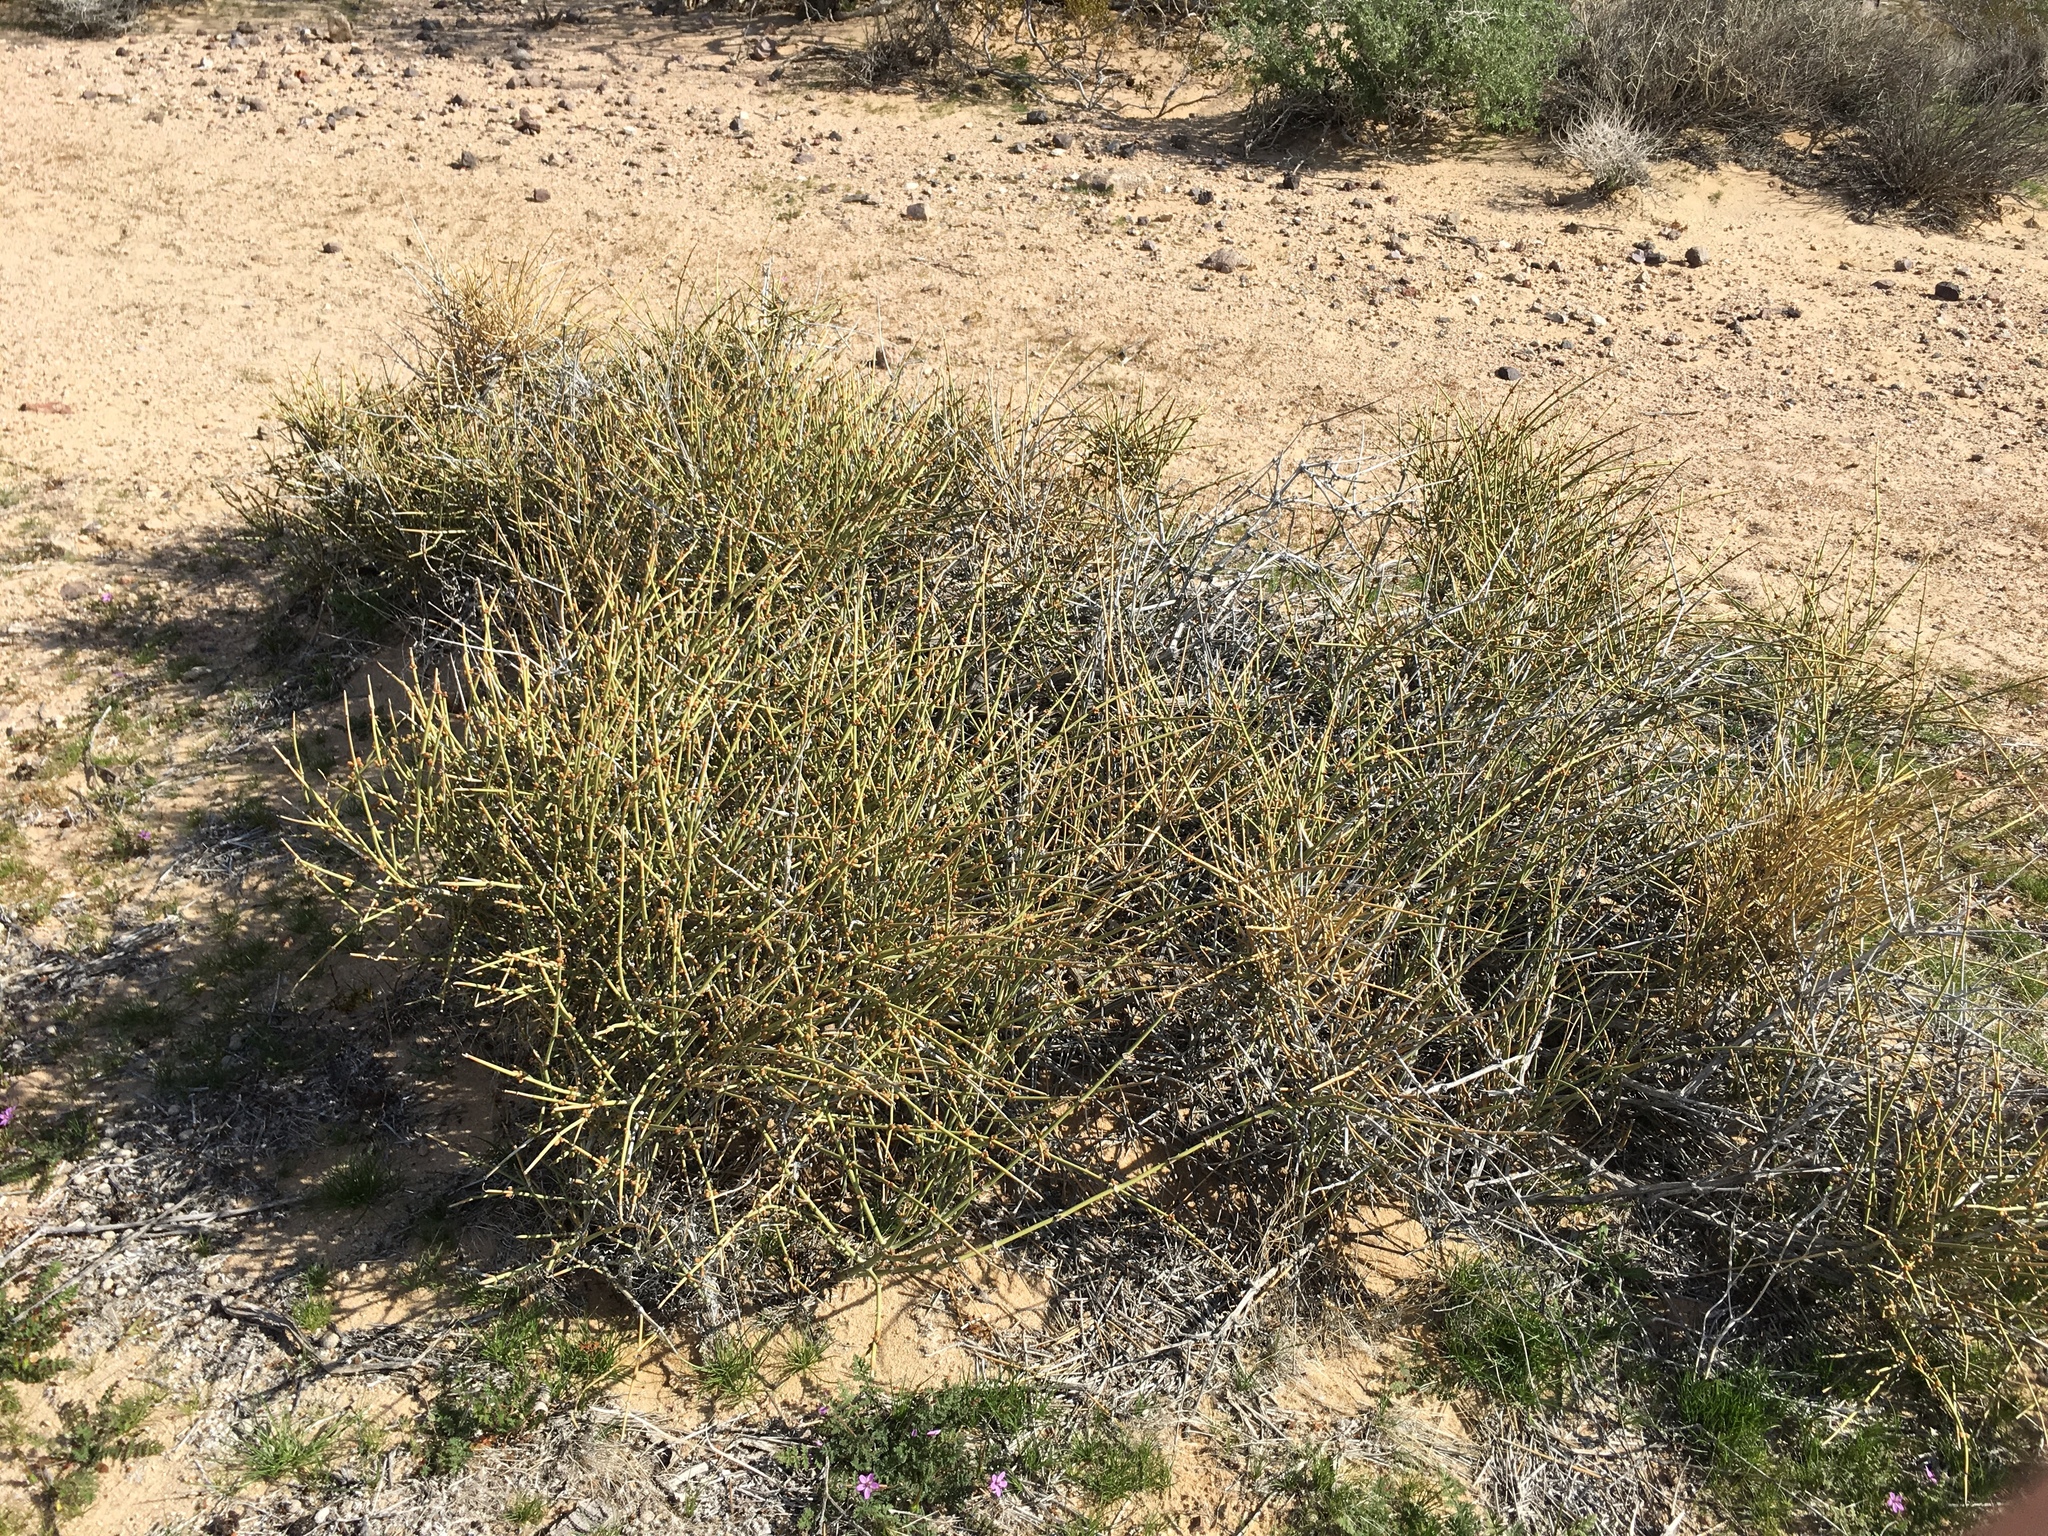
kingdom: Plantae
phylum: Tracheophyta
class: Gnetopsida
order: Ephedrales
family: Ephedraceae
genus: Ephedra
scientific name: Ephedra viridis
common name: Green ephedra
